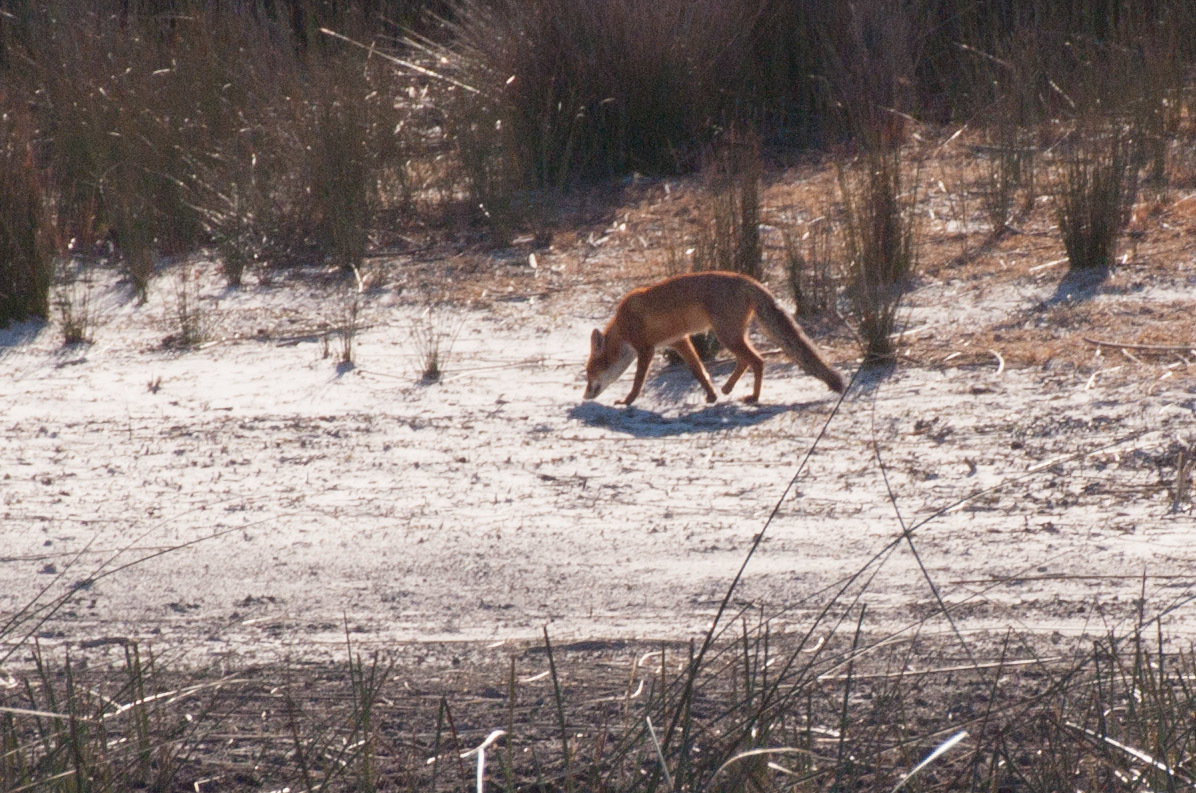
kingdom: Animalia
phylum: Chordata
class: Mammalia
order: Carnivora
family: Canidae
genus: Vulpes
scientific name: Vulpes vulpes
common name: Red fox
